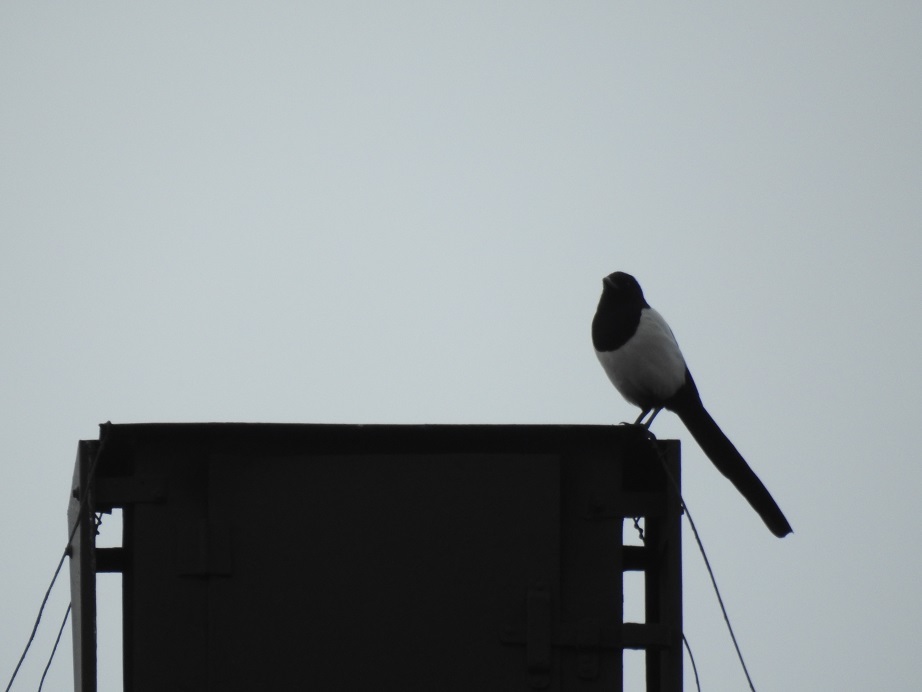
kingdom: Animalia
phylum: Chordata
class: Aves
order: Passeriformes
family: Corvidae
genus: Pica
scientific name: Pica pica
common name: Eurasian magpie
